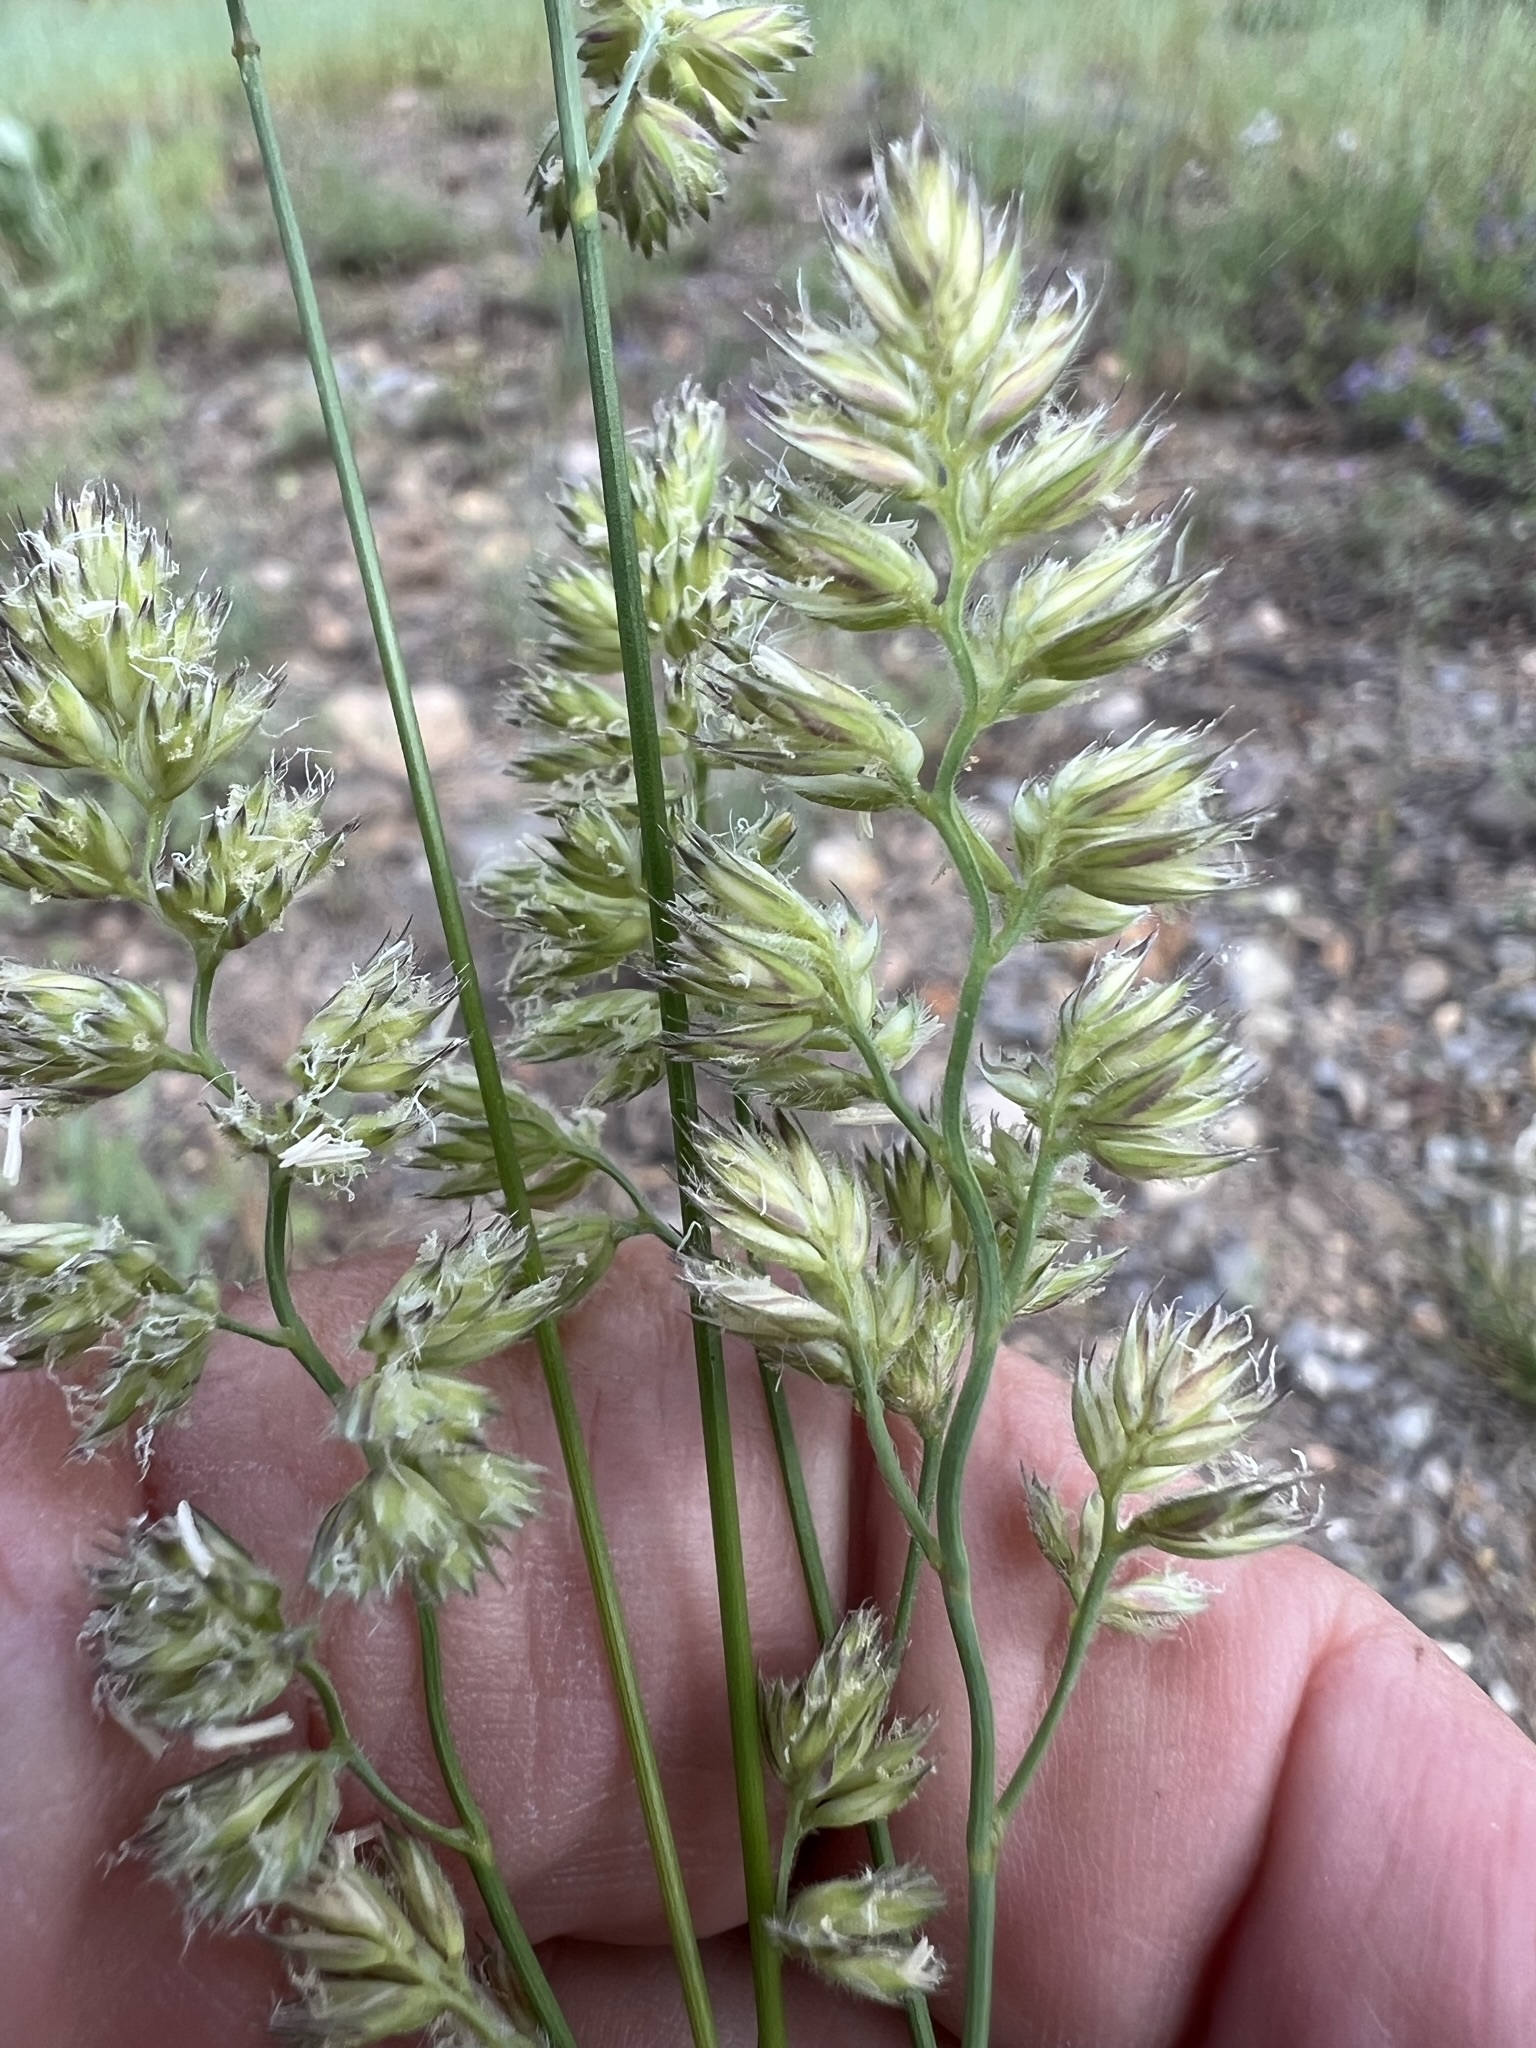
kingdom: Plantae
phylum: Tracheophyta
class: Liliopsida
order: Poales
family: Poaceae
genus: Dactylis
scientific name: Dactylis glomerata
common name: Orchardgrass
